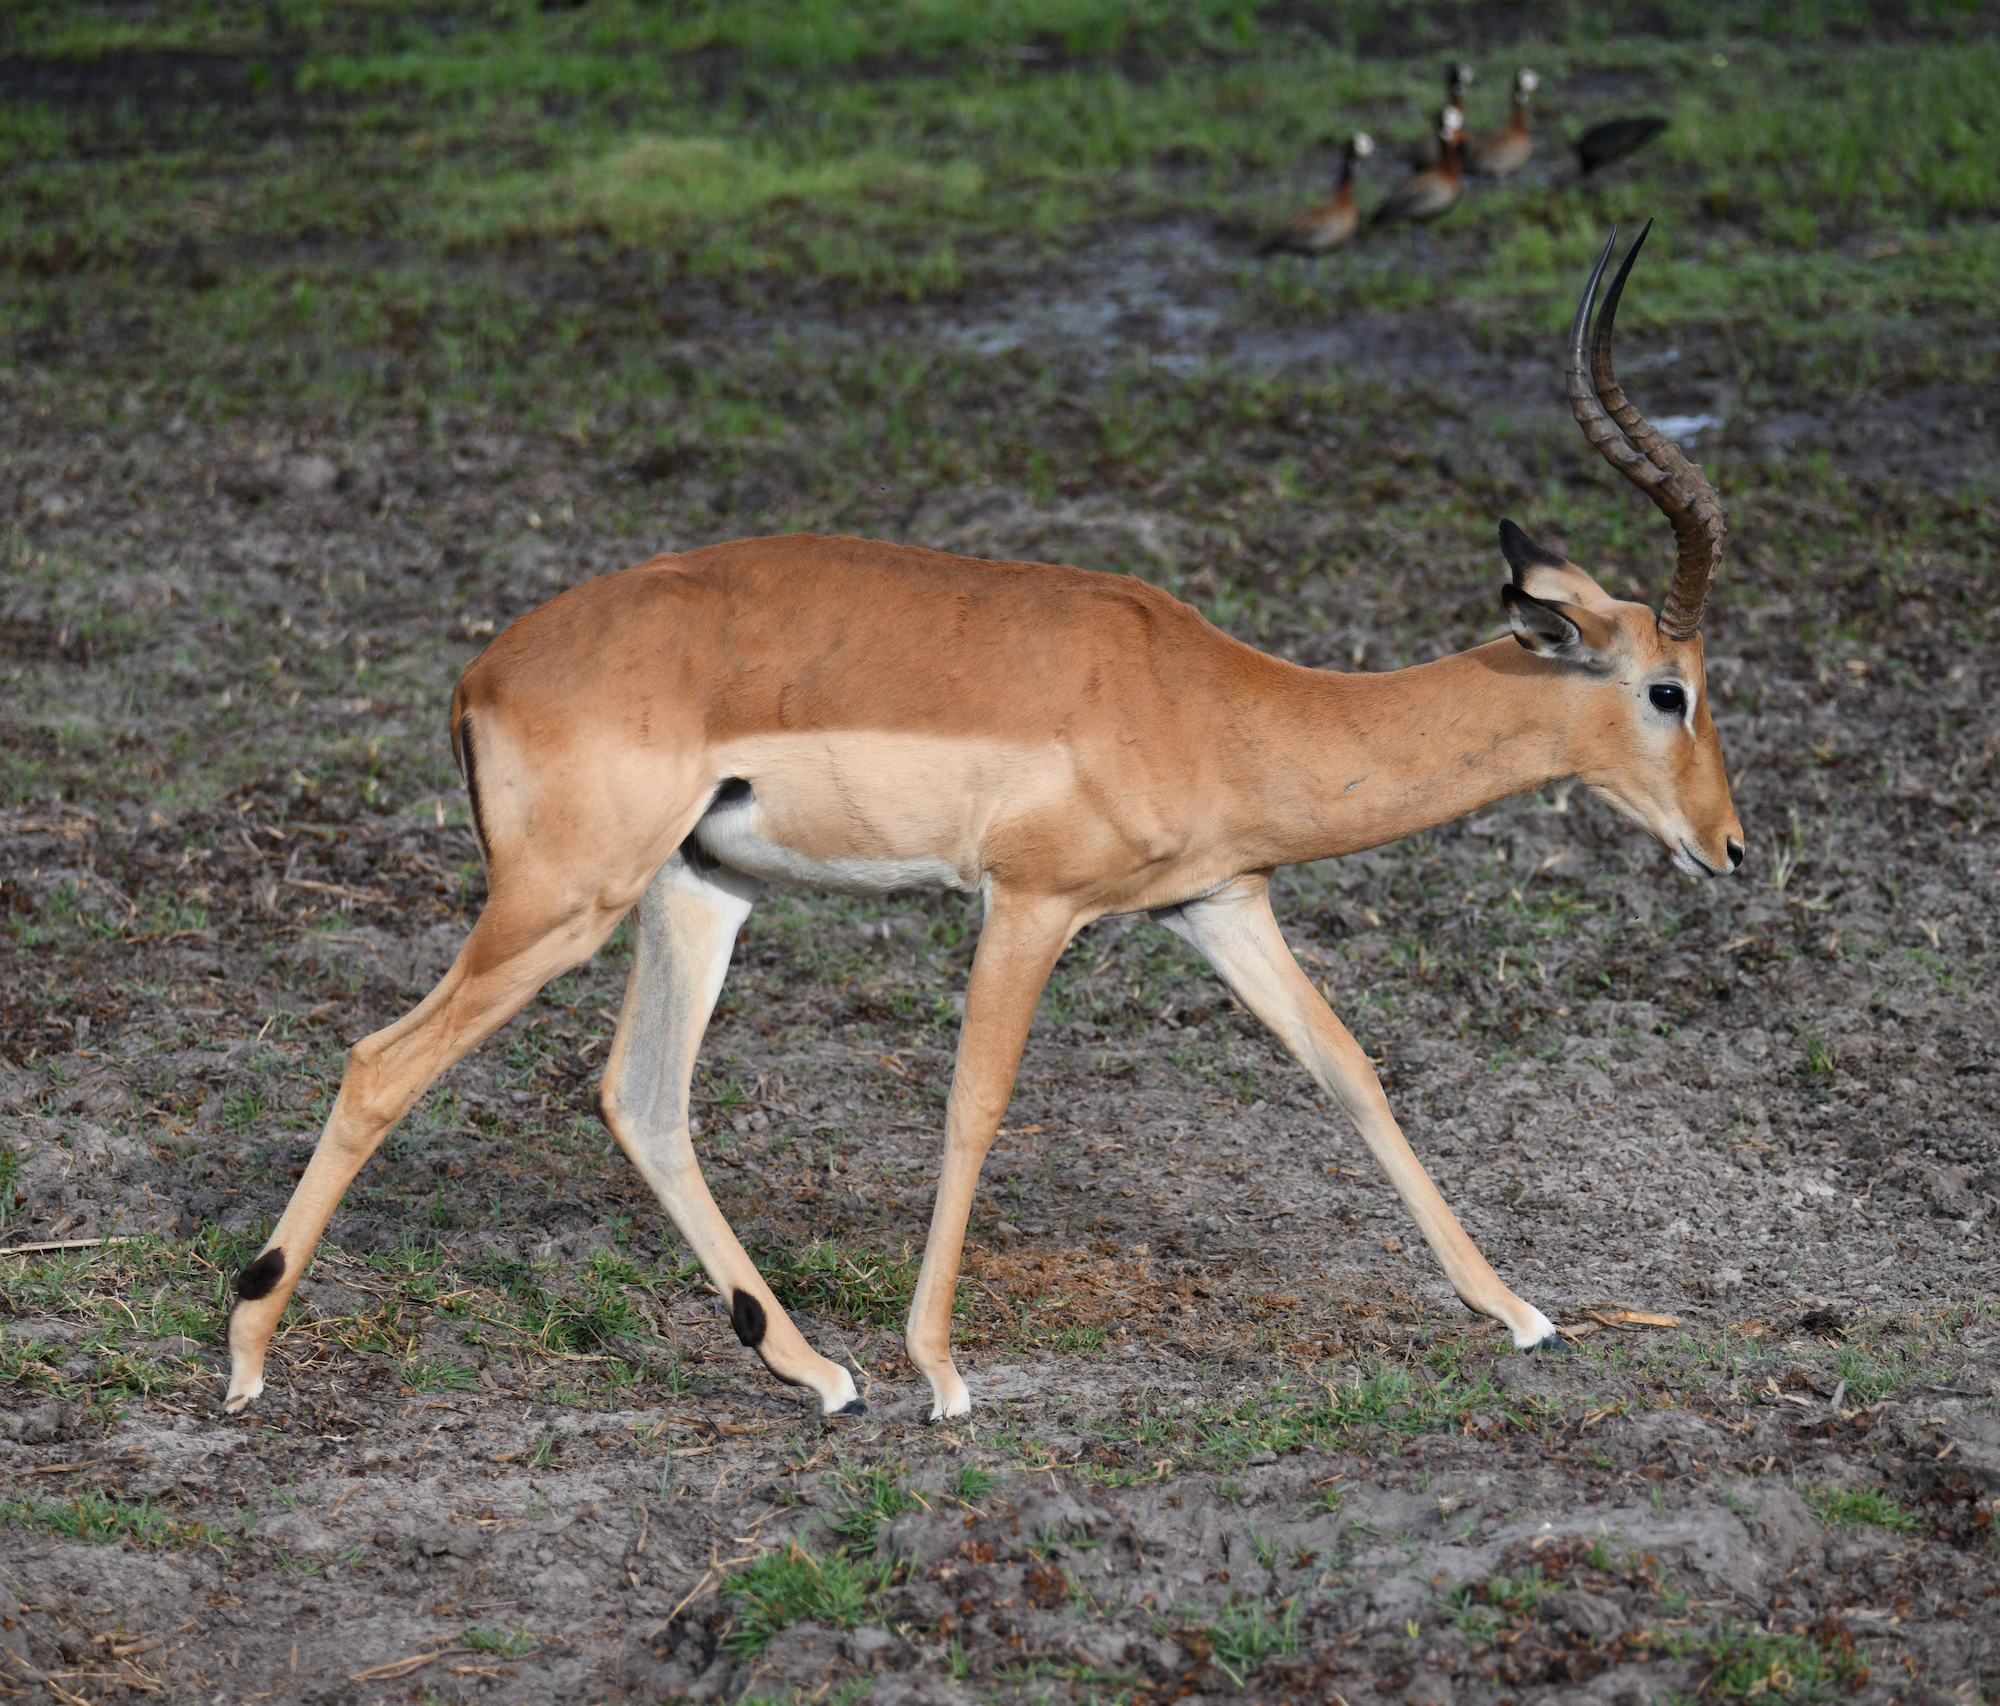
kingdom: Animalia
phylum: Chordata
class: Mammalia
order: Artiodactyla
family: Bovidae
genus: Aepyceros
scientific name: Aepyceros melampus
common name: Impala
